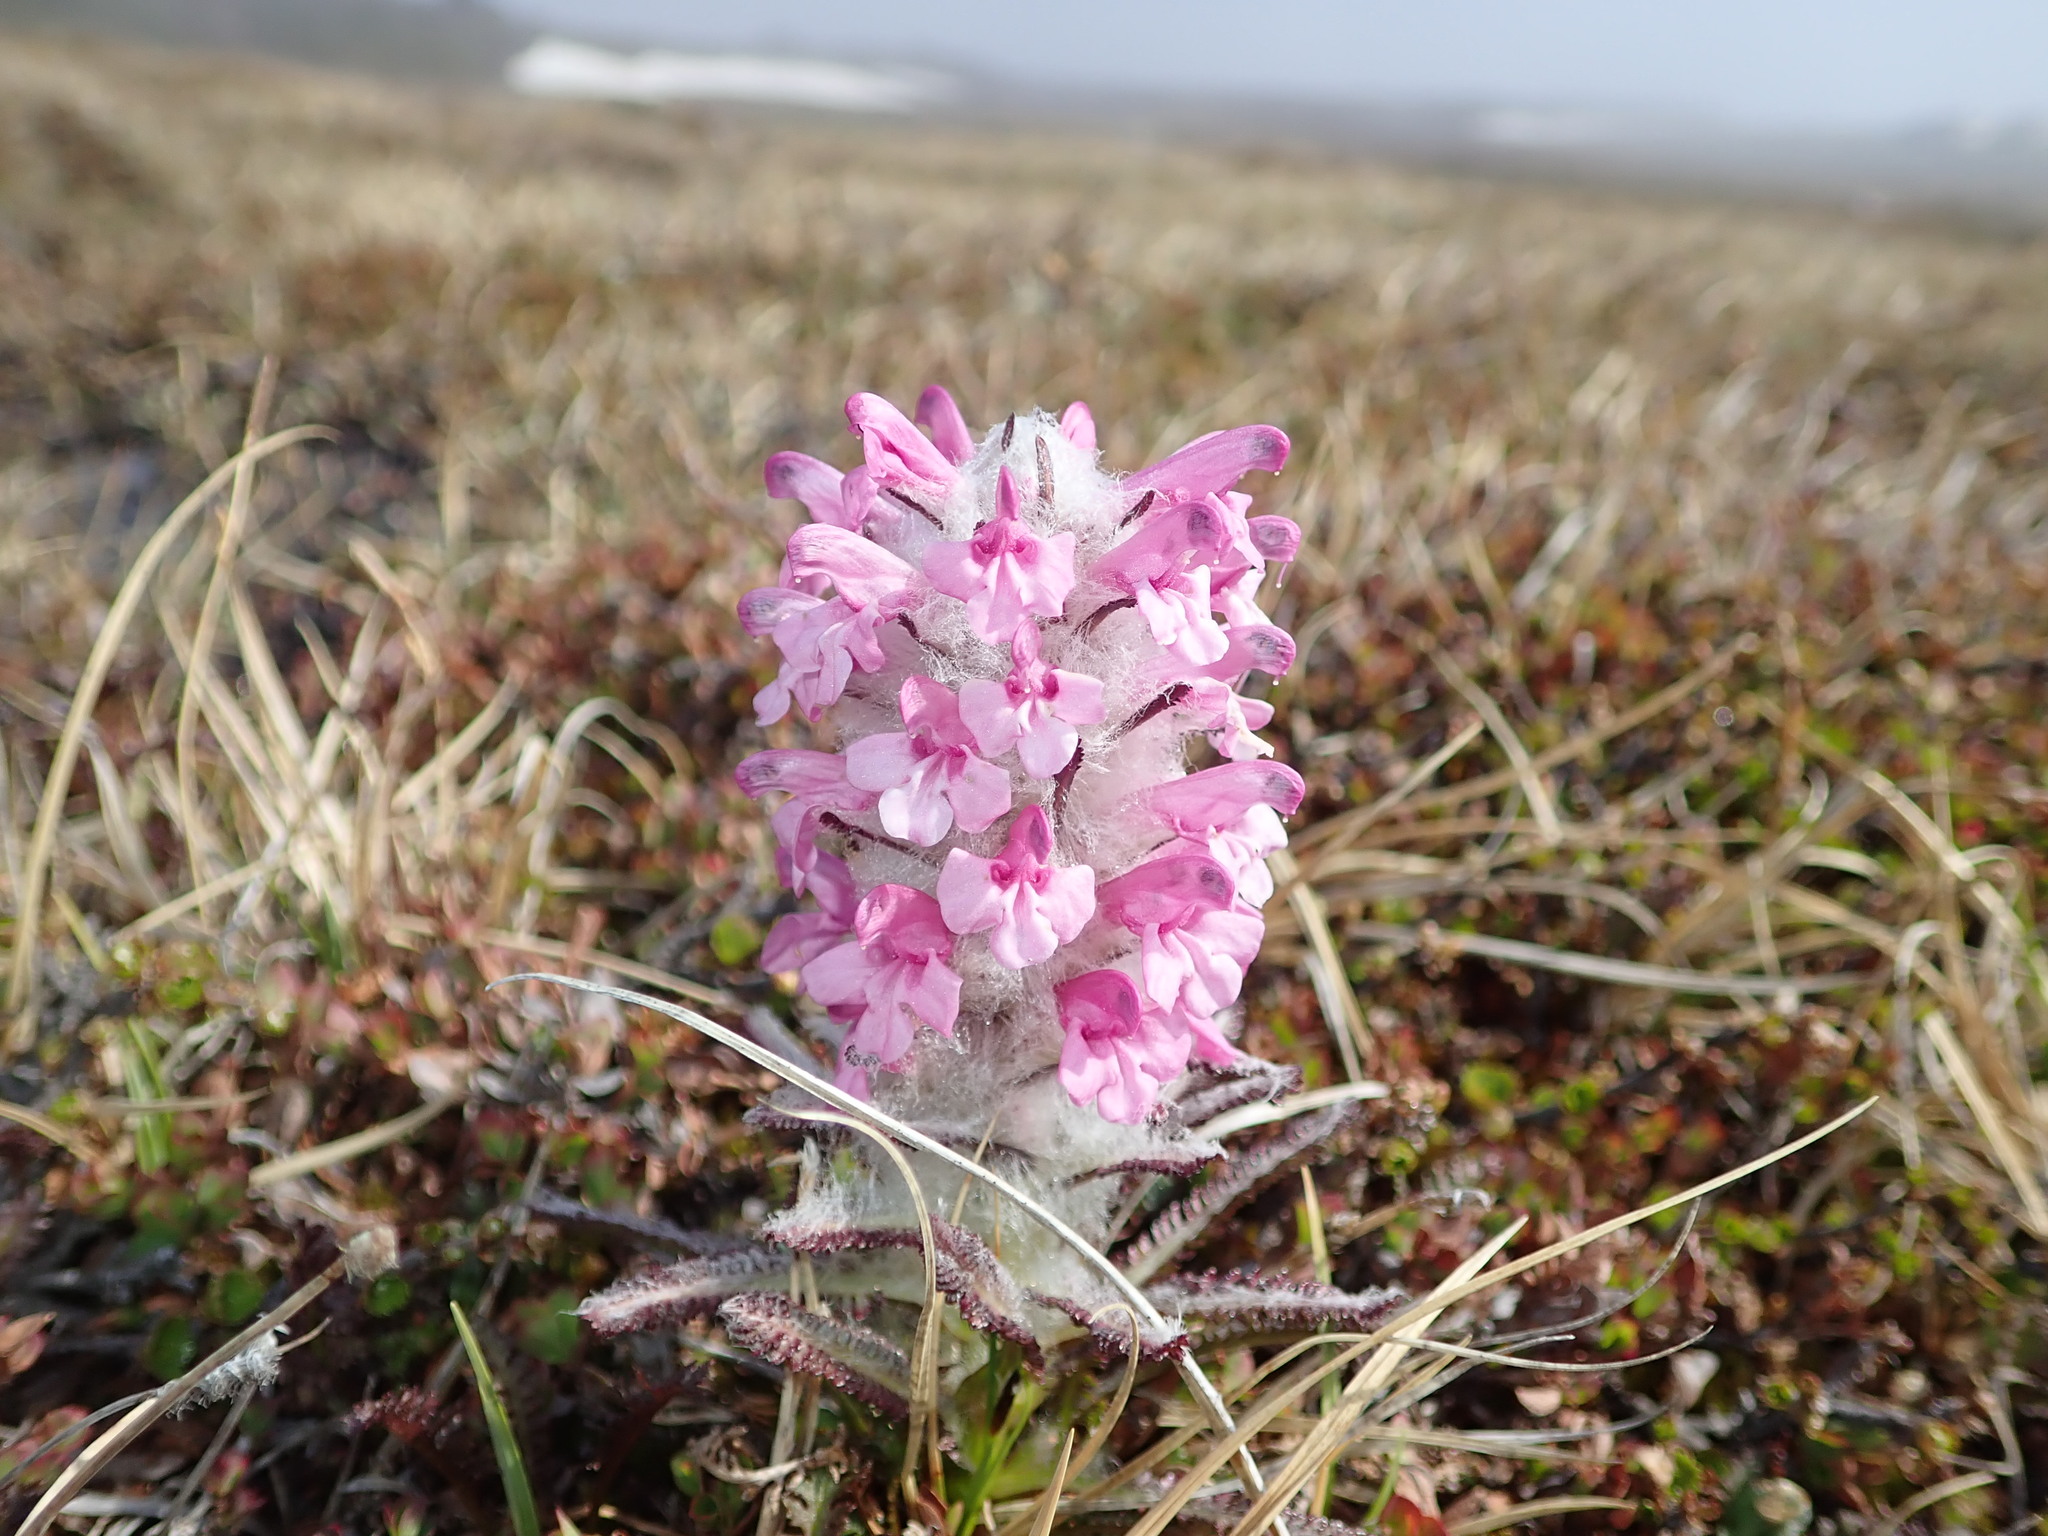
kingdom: Plantae
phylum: Tracheophyta
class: Magnoliopsida
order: Lamiales
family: Orobanchaceae
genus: Pedicularis
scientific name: Pedicularis lanata
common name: Woolly lousewort
